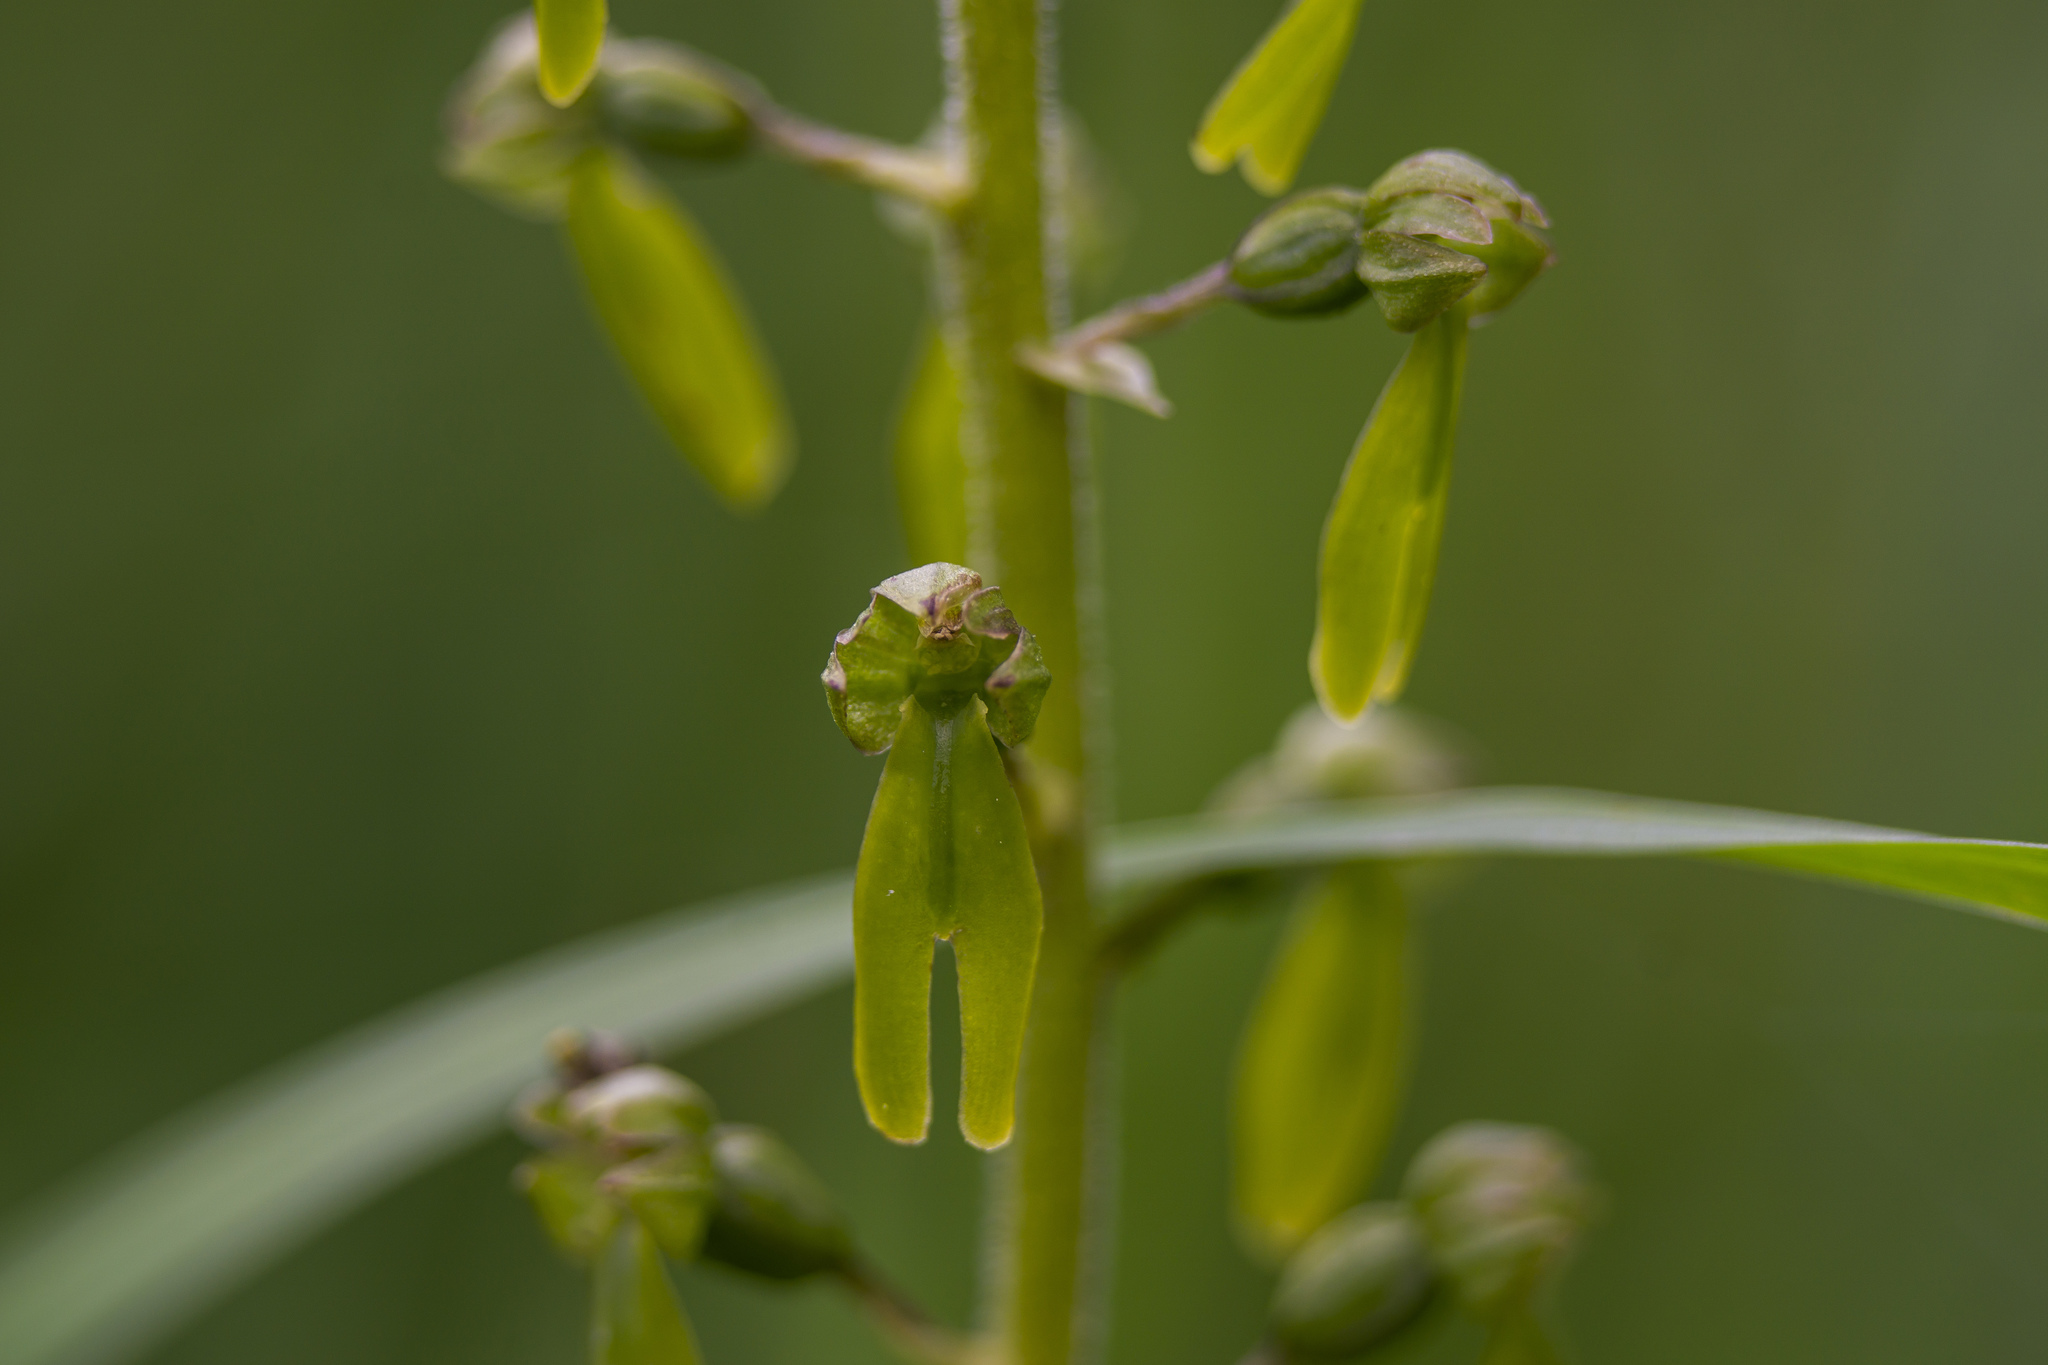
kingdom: Plantae
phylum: Tracheophyta
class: Liliopsida
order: Asparagales
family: Orchidaceae
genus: Neottia
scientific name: Neottia ovata
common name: Common twayblade
